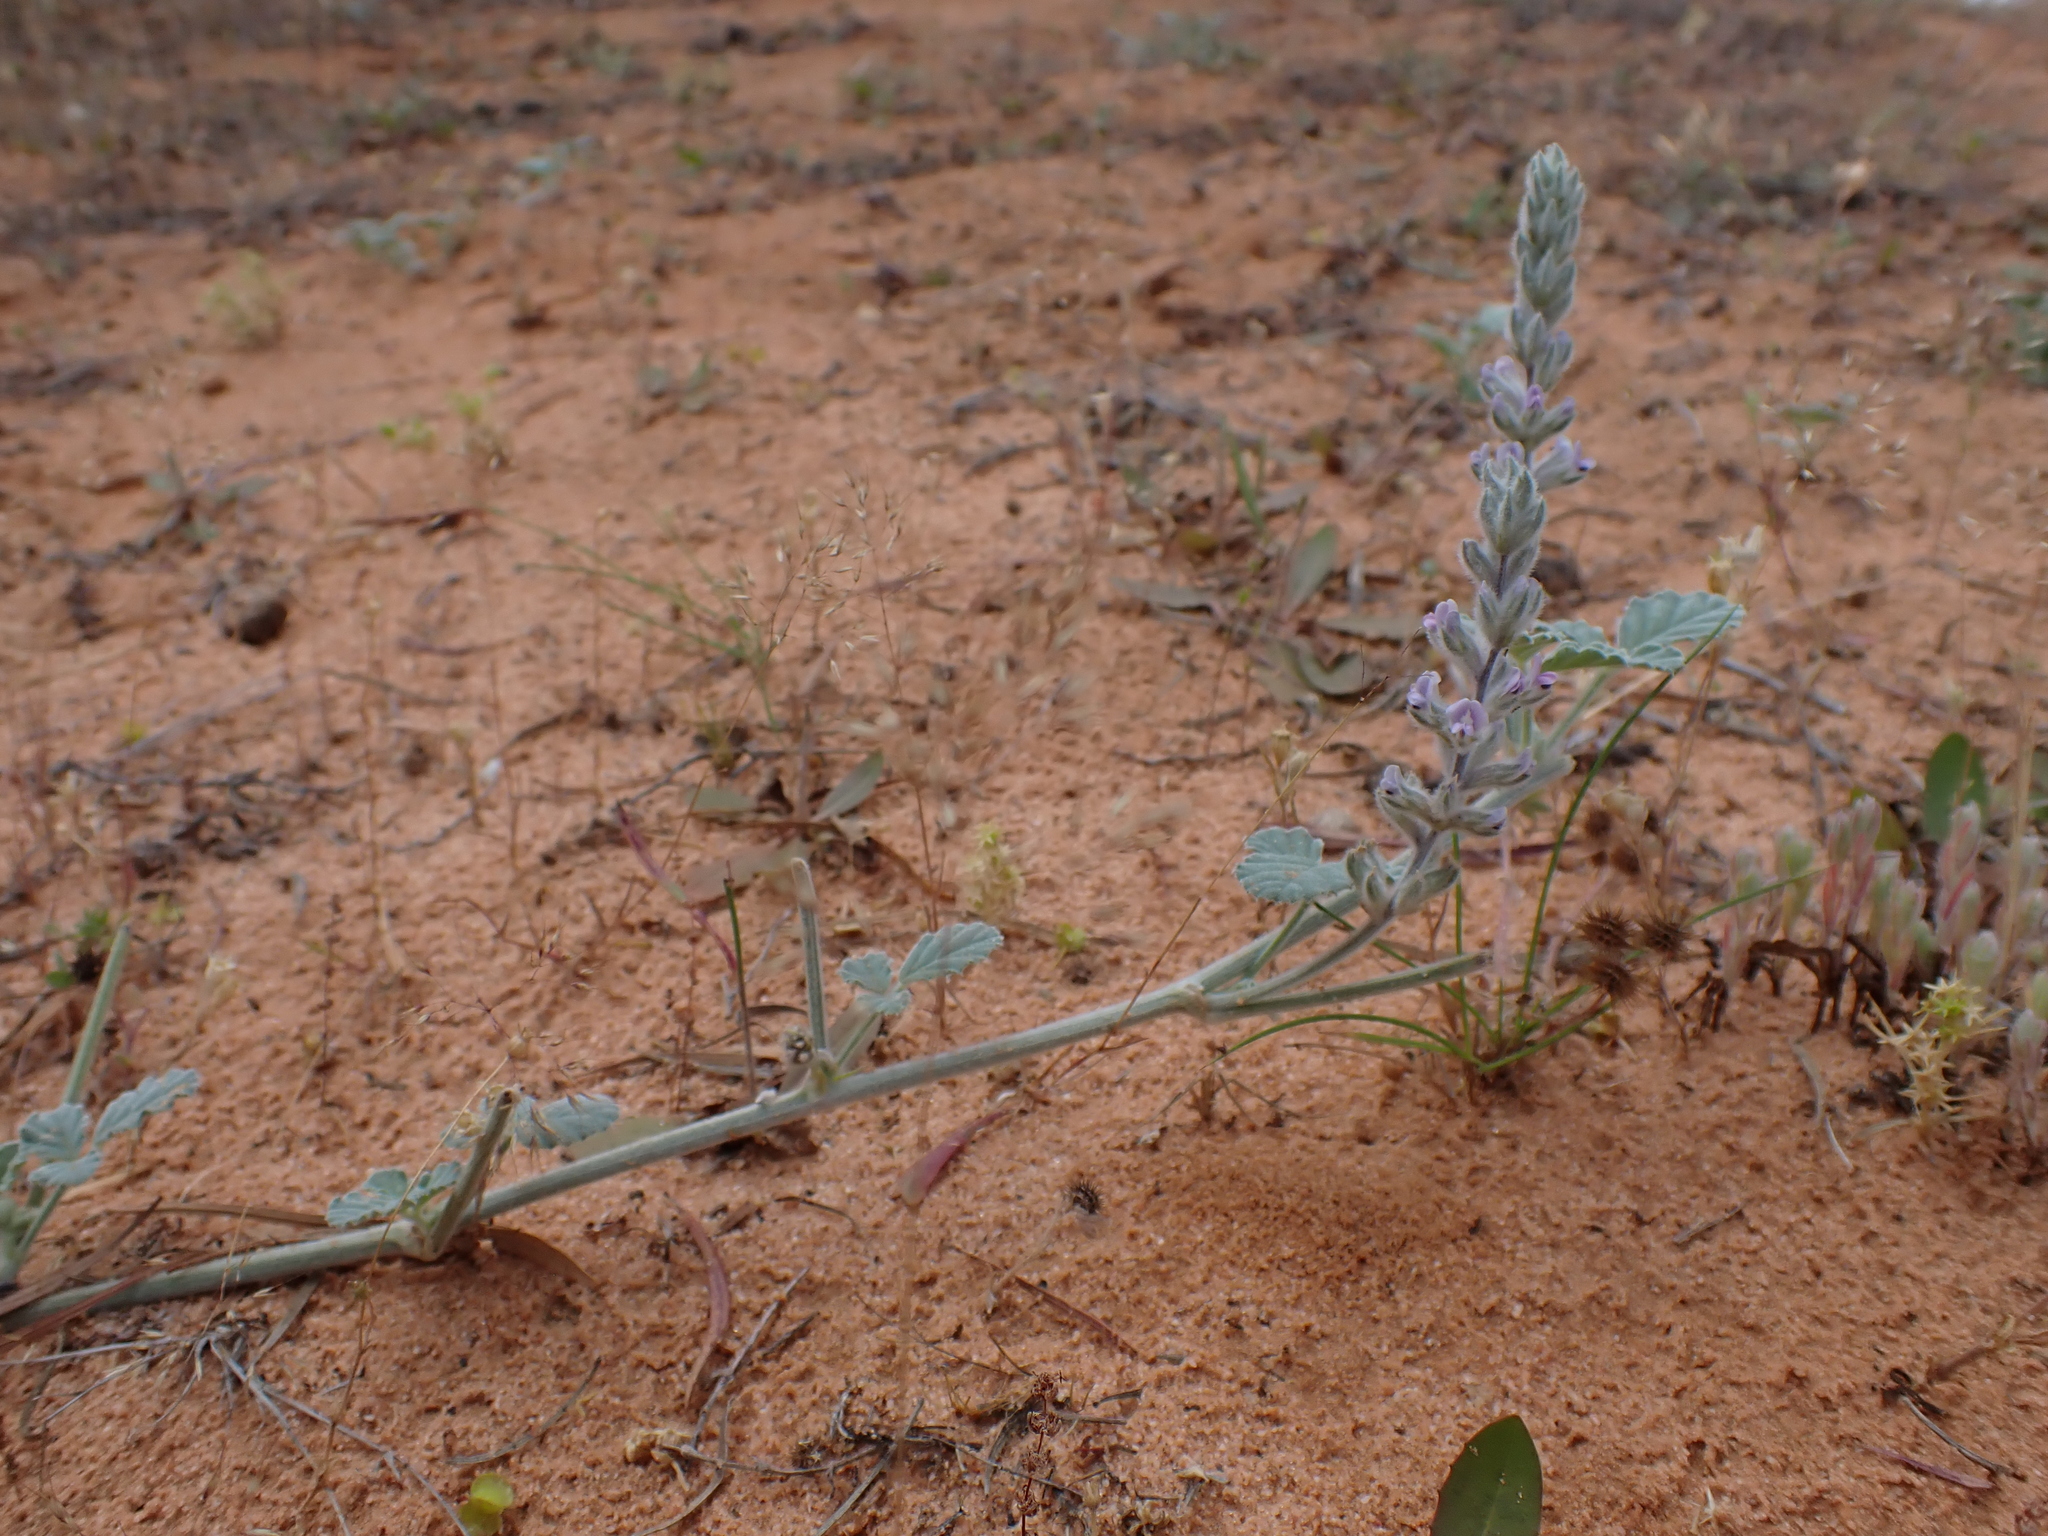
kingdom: Plantae
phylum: Tracheophyta
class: Magnoliopsida
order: Fabales
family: Fabaceae
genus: Cullen
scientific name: Cullen pallidum
